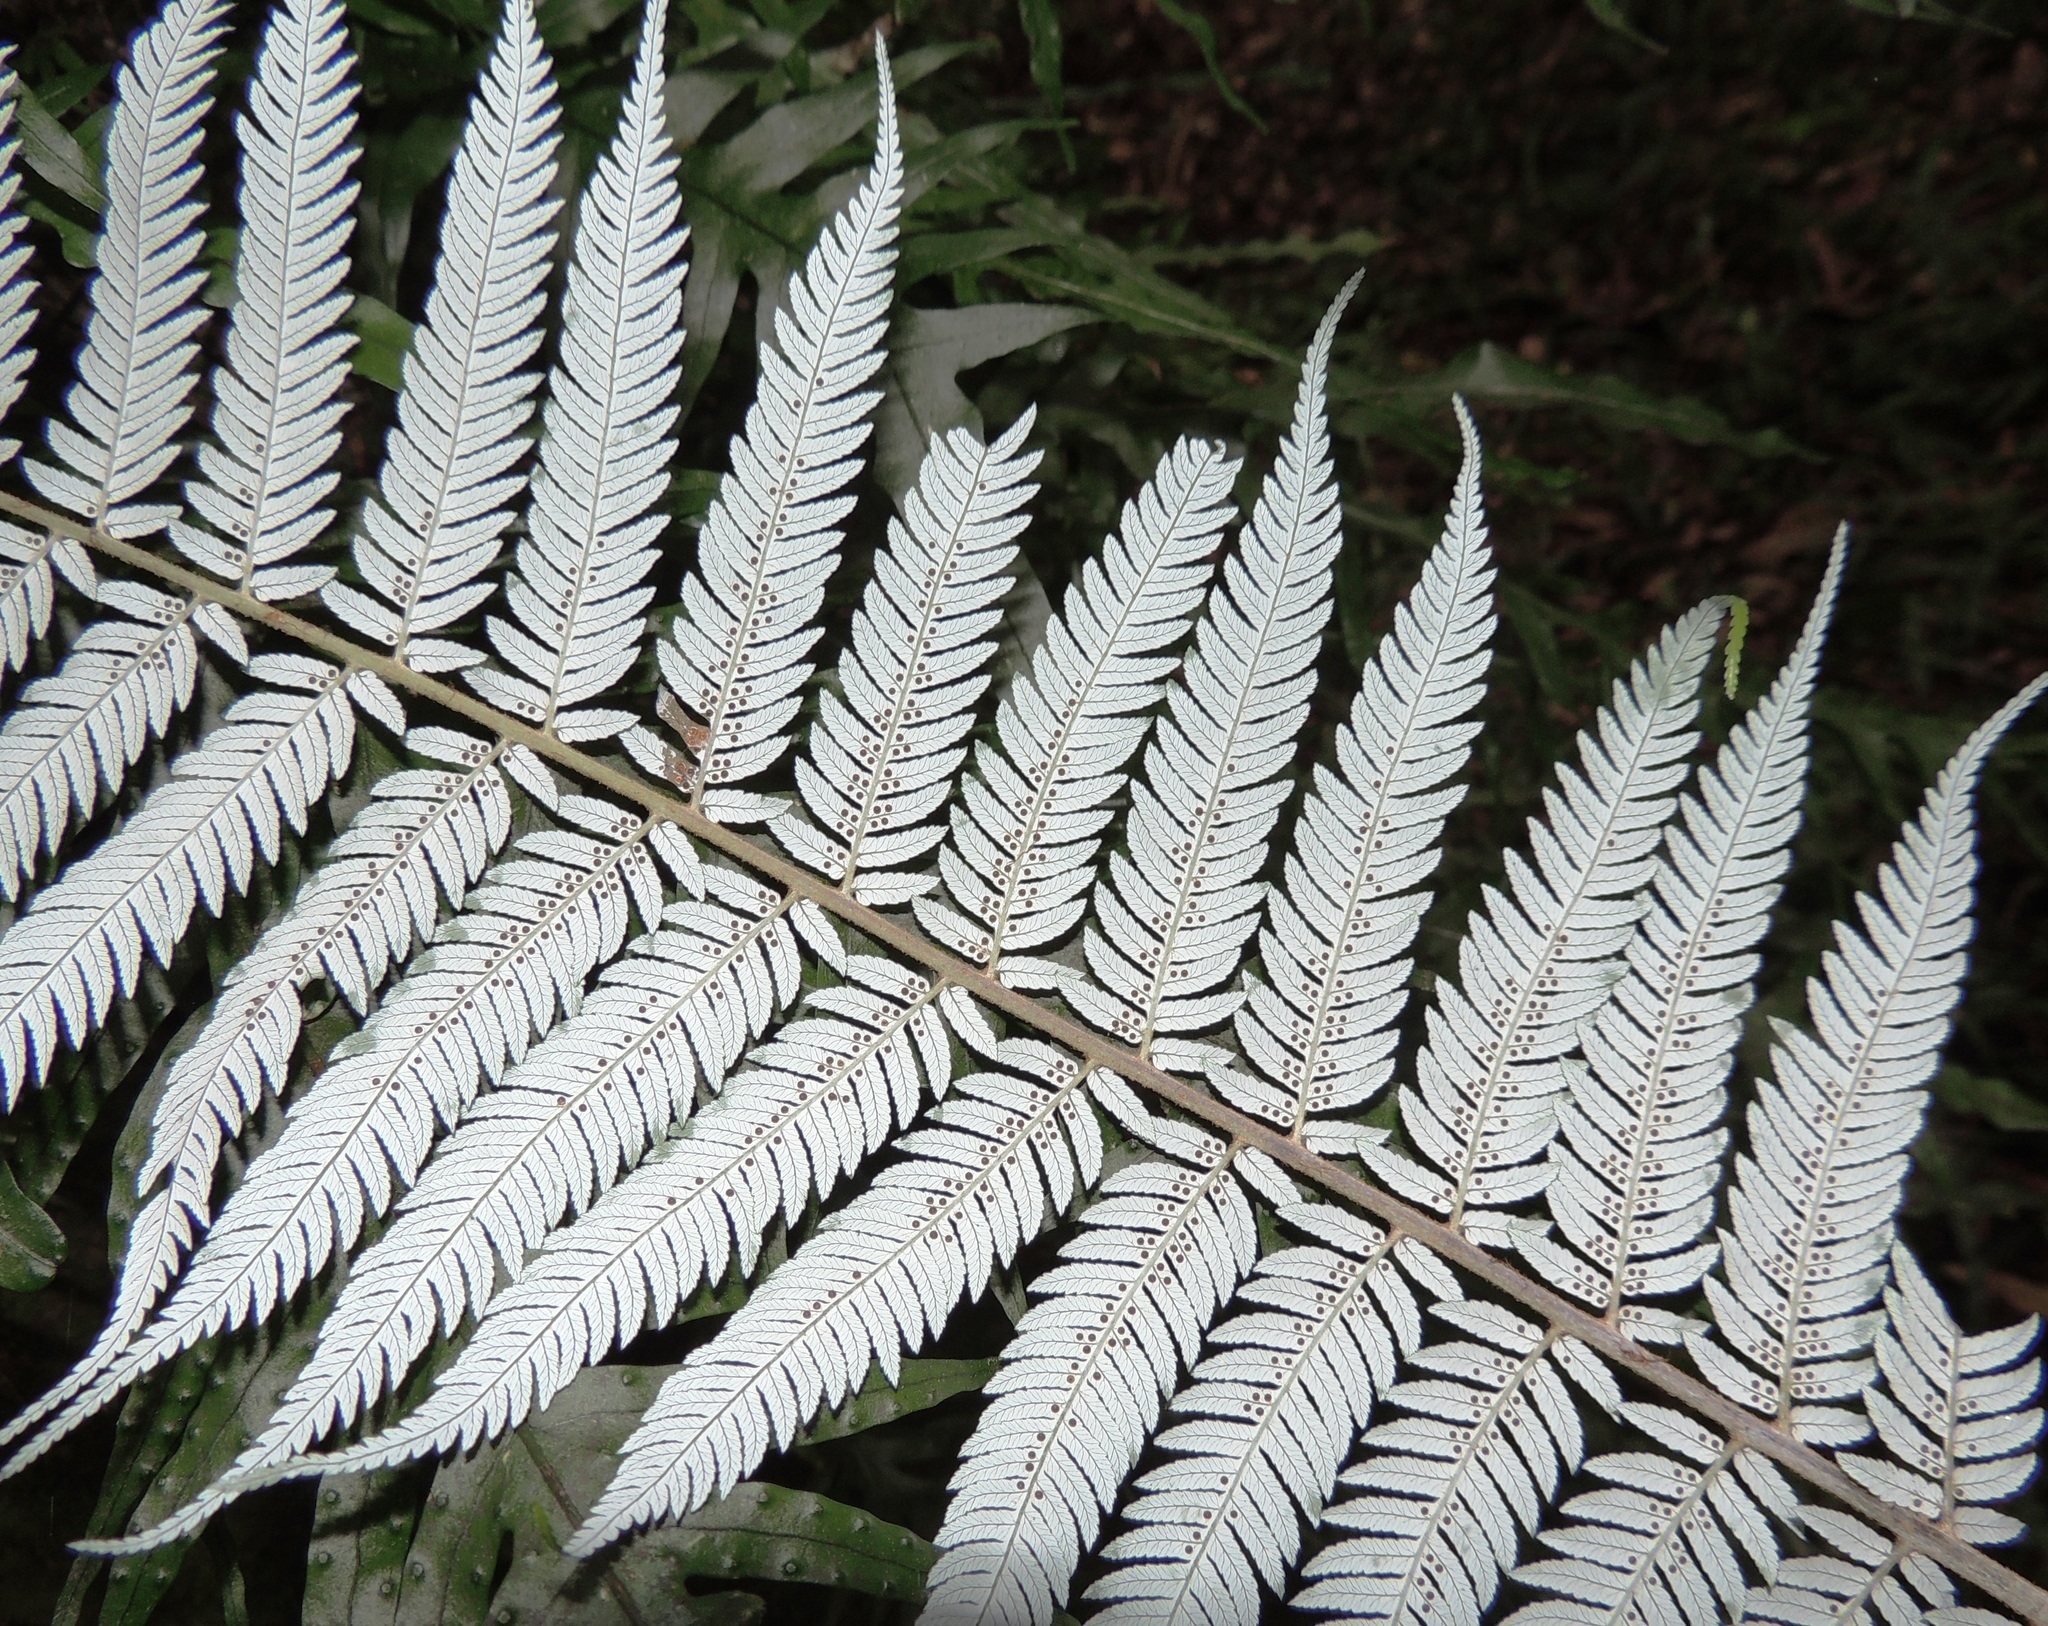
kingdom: Plantae
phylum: Tracheophyta
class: Polypodiopsida
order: Cyatheales
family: Cyatheaceae
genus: Alsophila
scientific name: Alsophila dealbata
